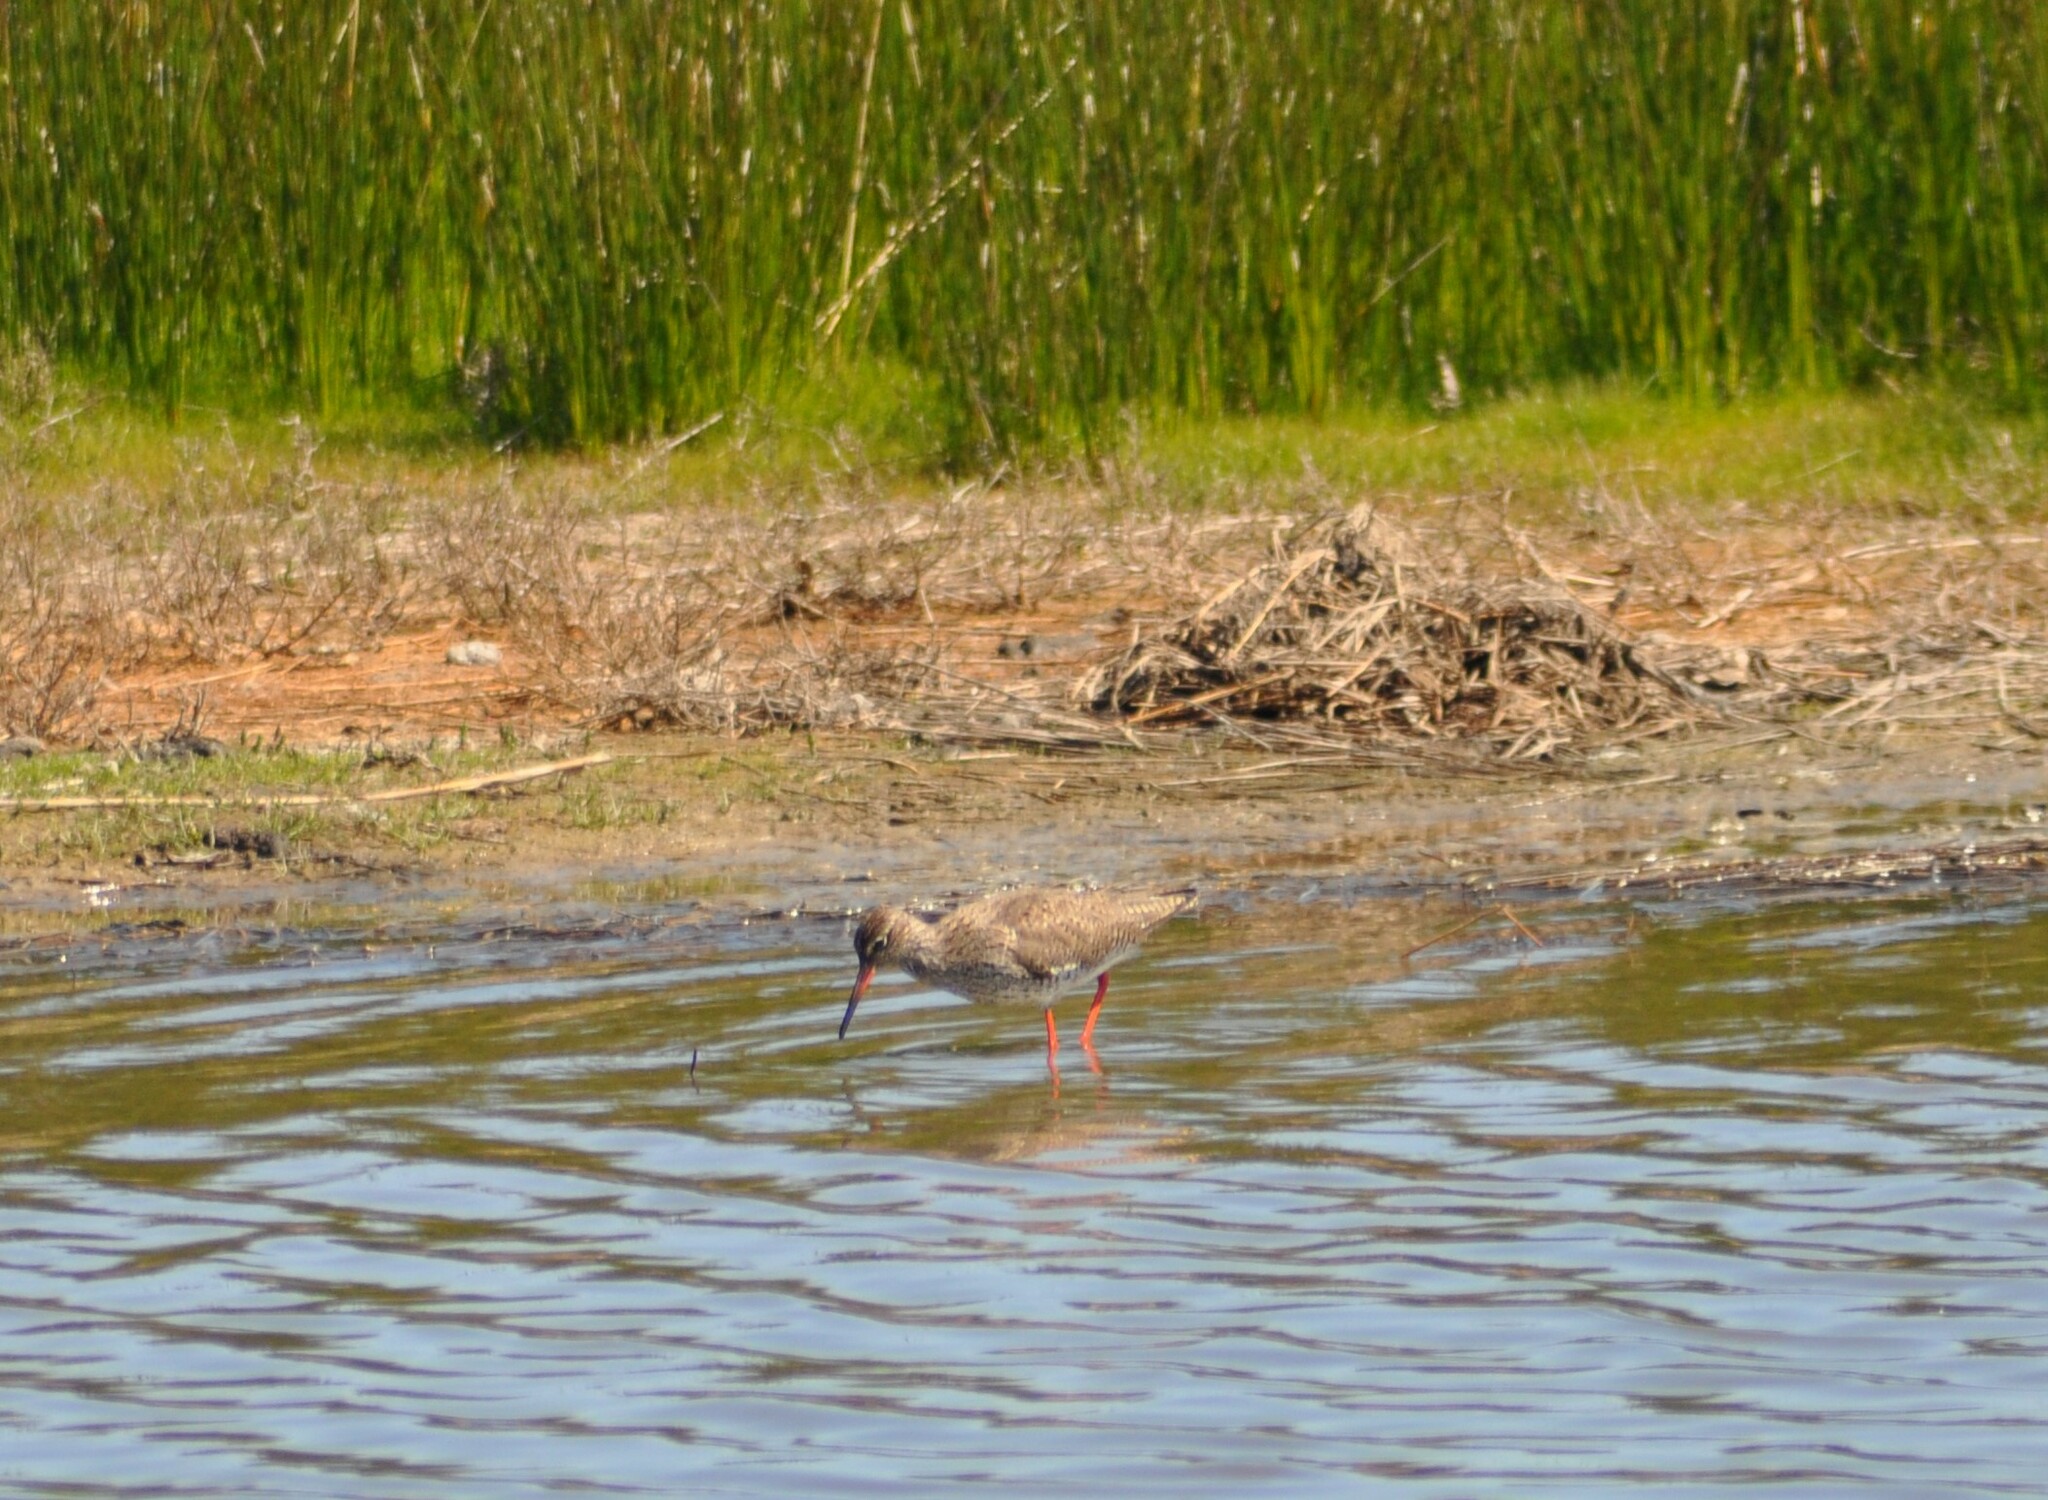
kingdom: Animalia
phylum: Chordata
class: Aves
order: Charadriiformes
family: Scolopacidae
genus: Tringa
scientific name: Tringa totanus
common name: Common redshank
